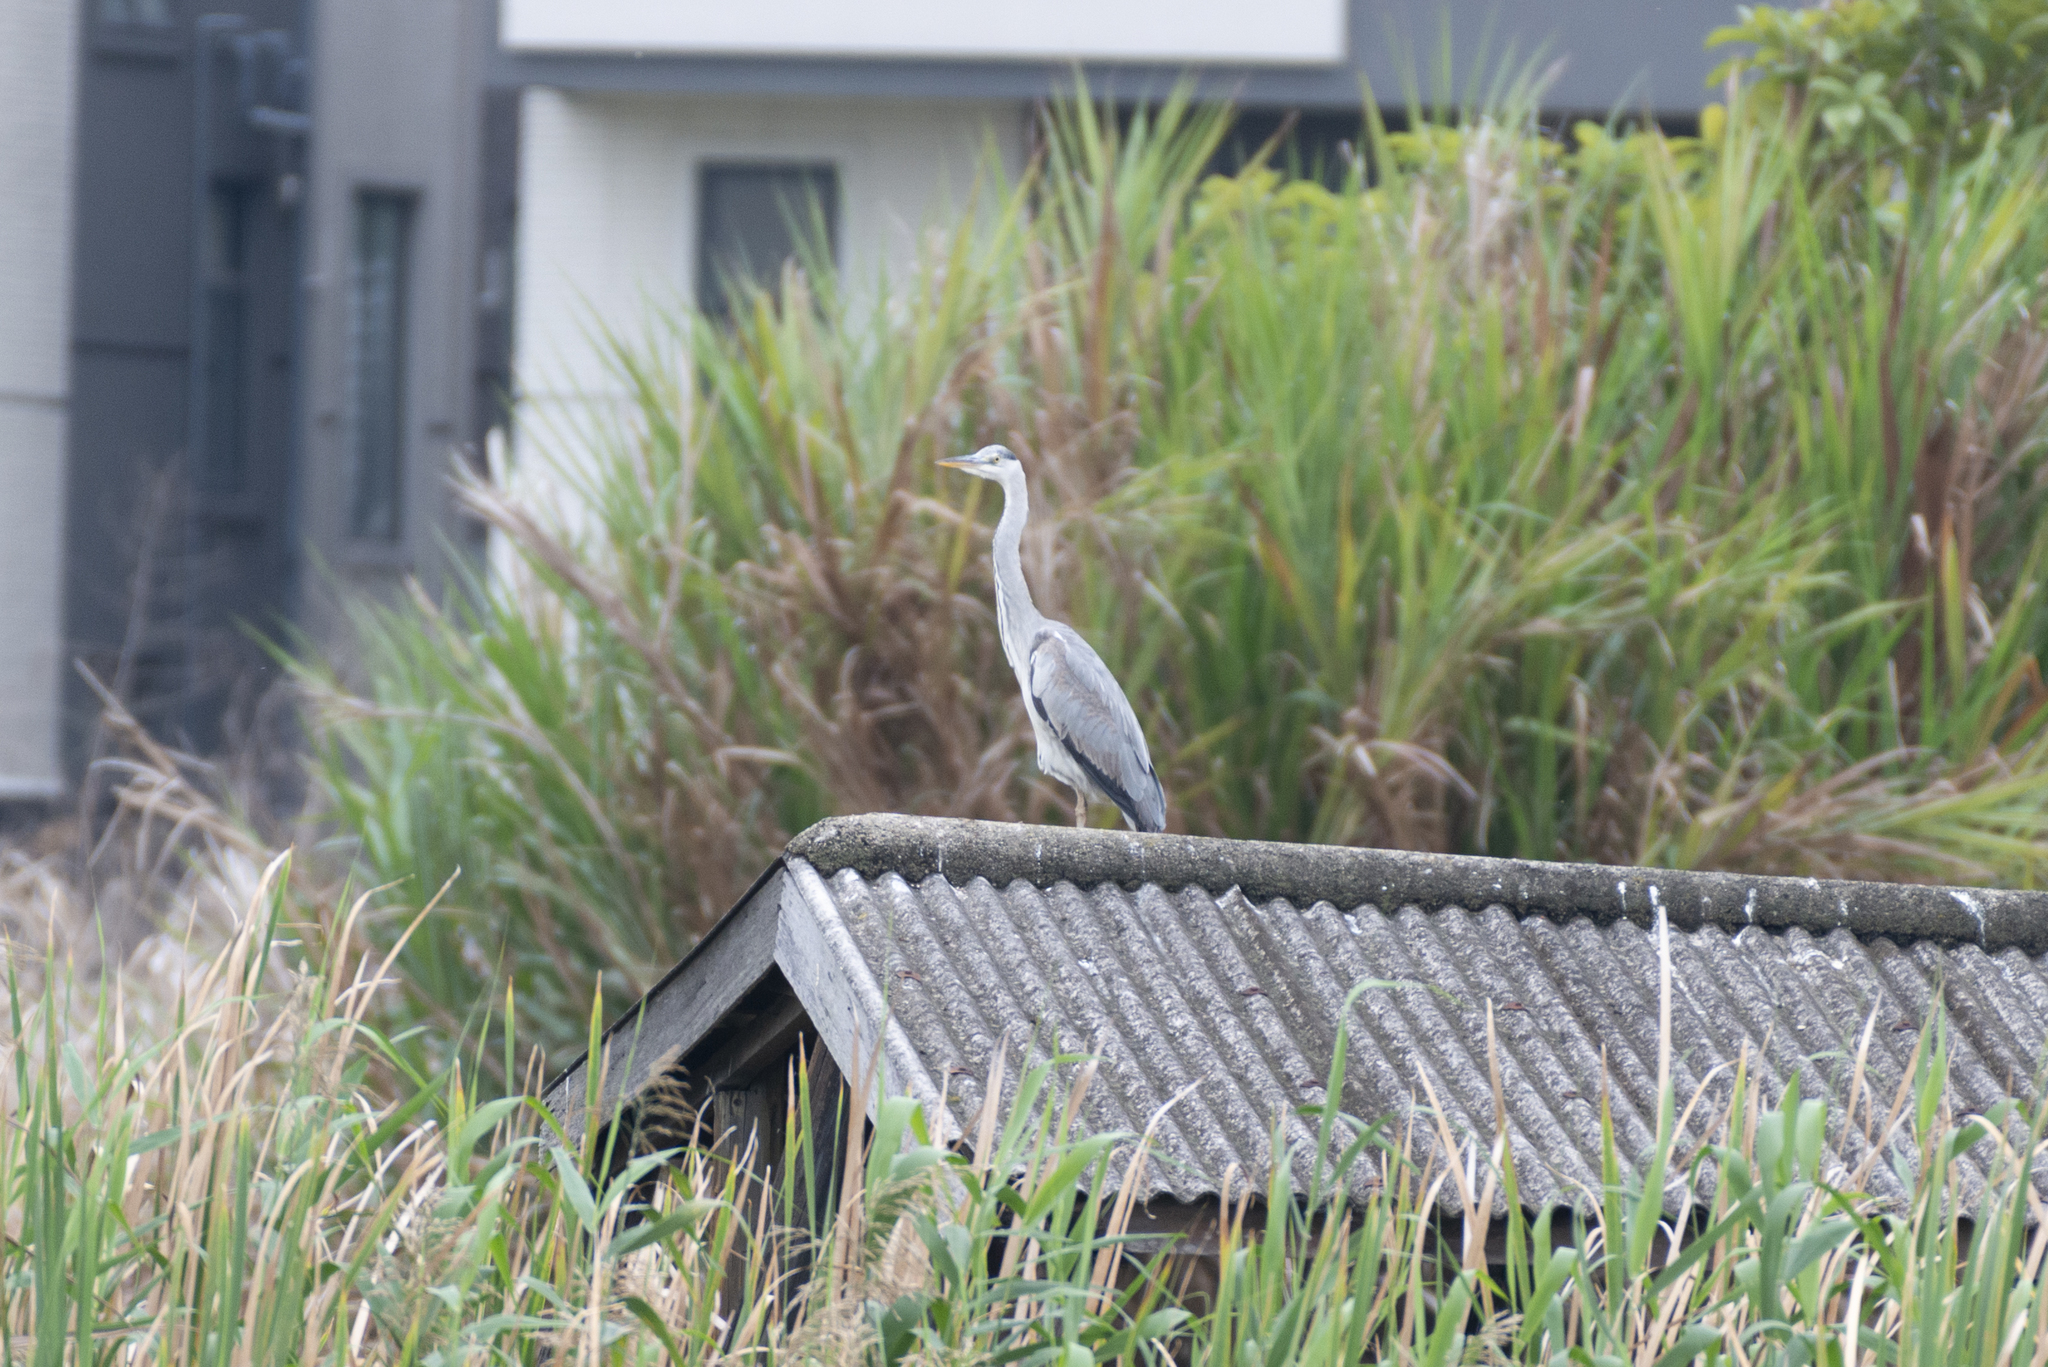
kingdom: Animalia
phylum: Chordata
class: Aves
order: Pelecaniformes
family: Ardeidae
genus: Ardea
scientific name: Ardea cinerea
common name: Grey heron
